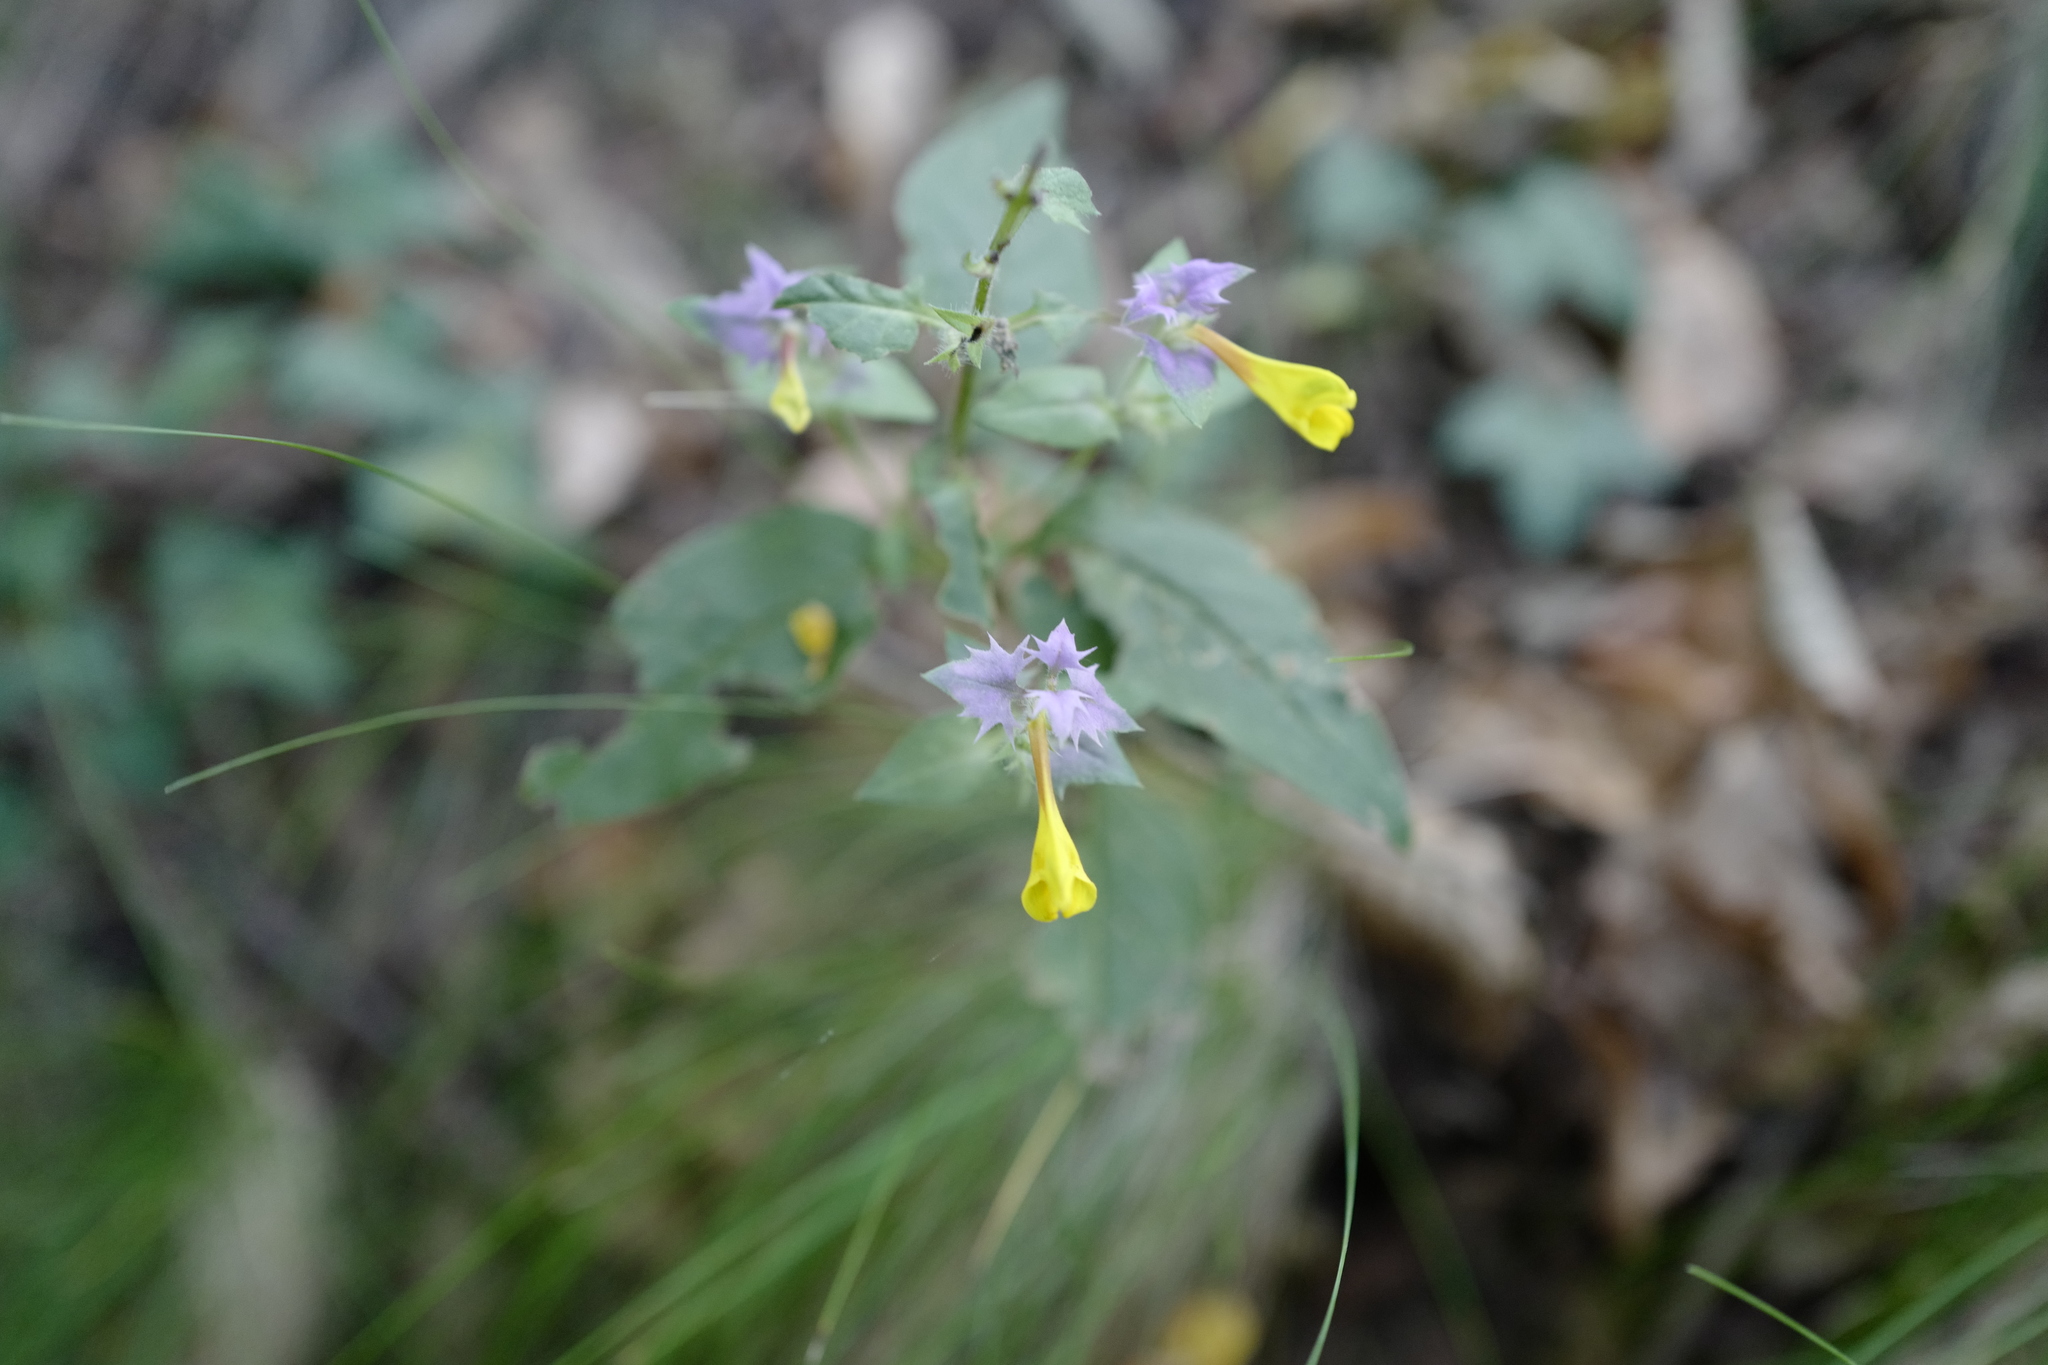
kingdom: Plantae
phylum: Tracheophyta
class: Magnoliopsida
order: Lamiales
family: Orobanchaceae
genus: Melampyrum
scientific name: Melampyrum nemorosum
